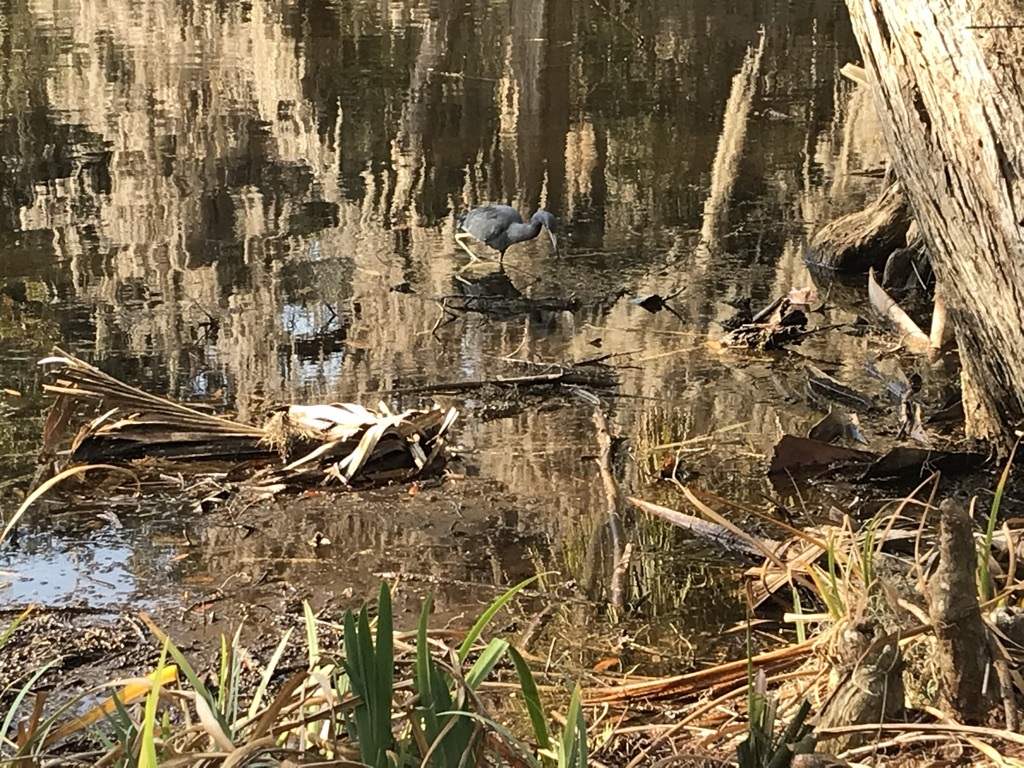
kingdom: Animalia
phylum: Chordata
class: Aves
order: Pelecaniformes
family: Ardeidae
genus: Egretta
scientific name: Egretta caerulea
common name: Little blue heron
